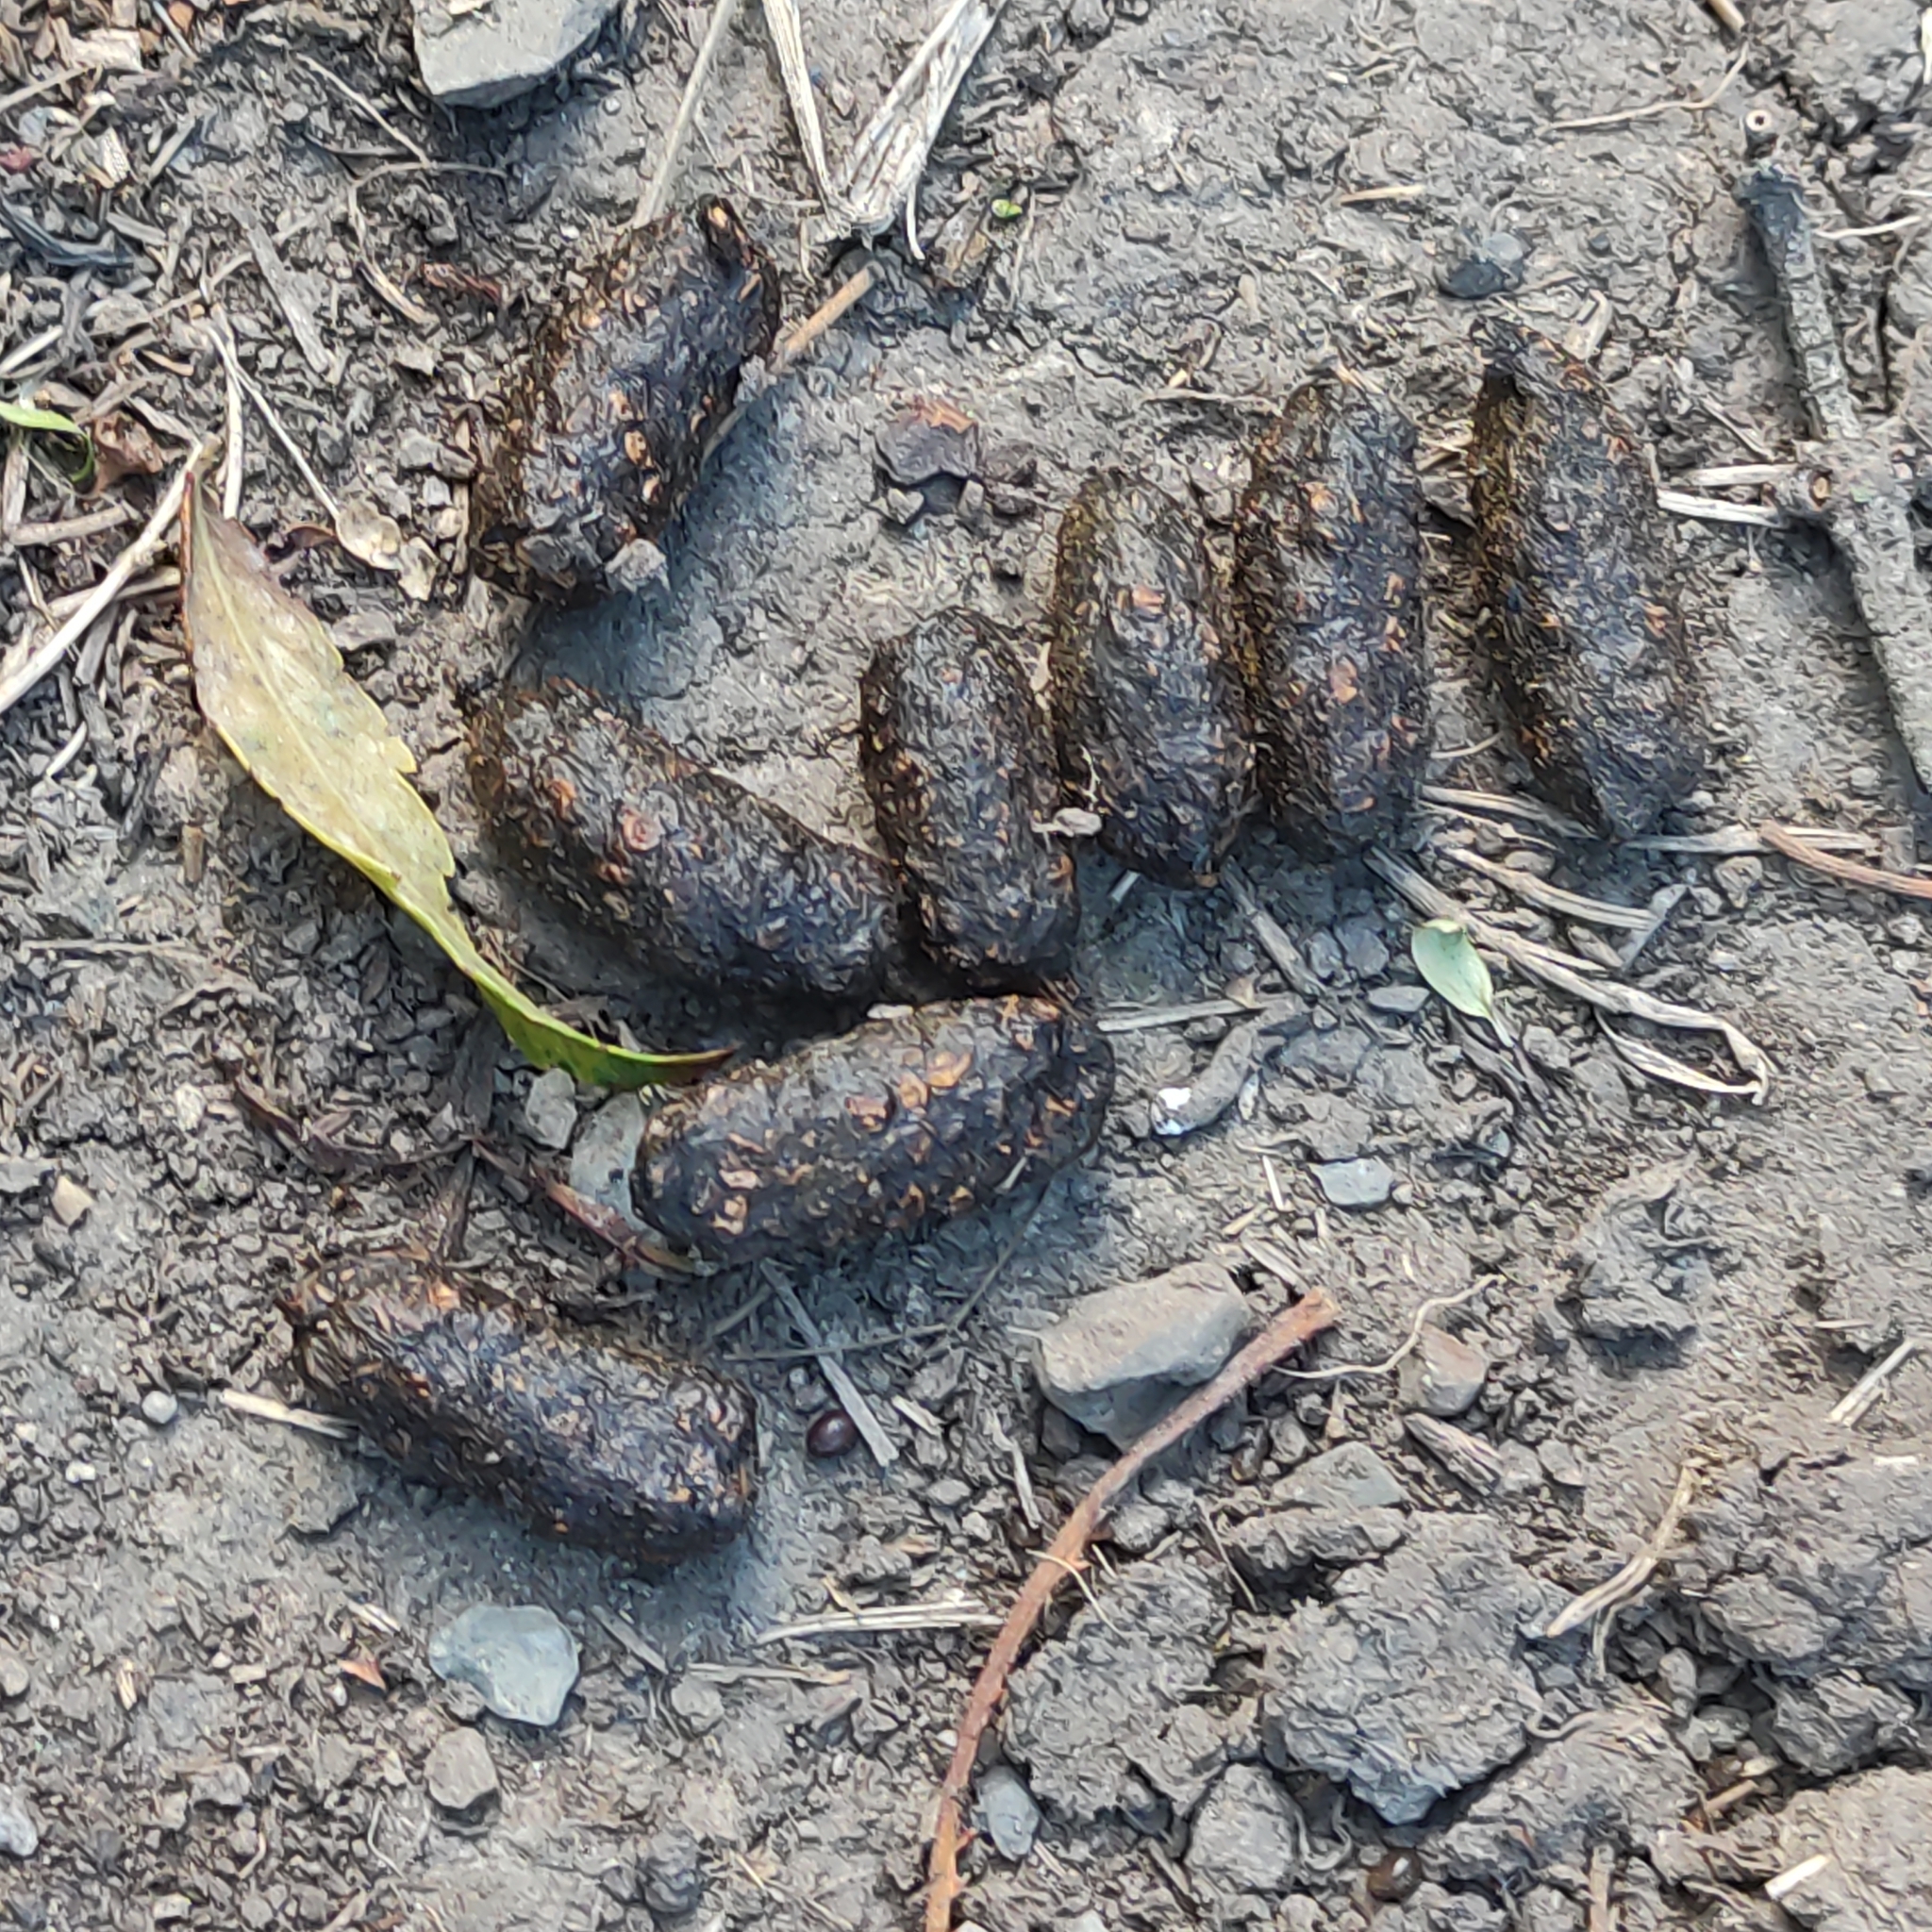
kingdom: Animalia
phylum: Chordata
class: Mammalia
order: Diprotodontia
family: Phalangeridae
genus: Trichosurus
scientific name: Trichosurus vulpecula
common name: Common brushtail
